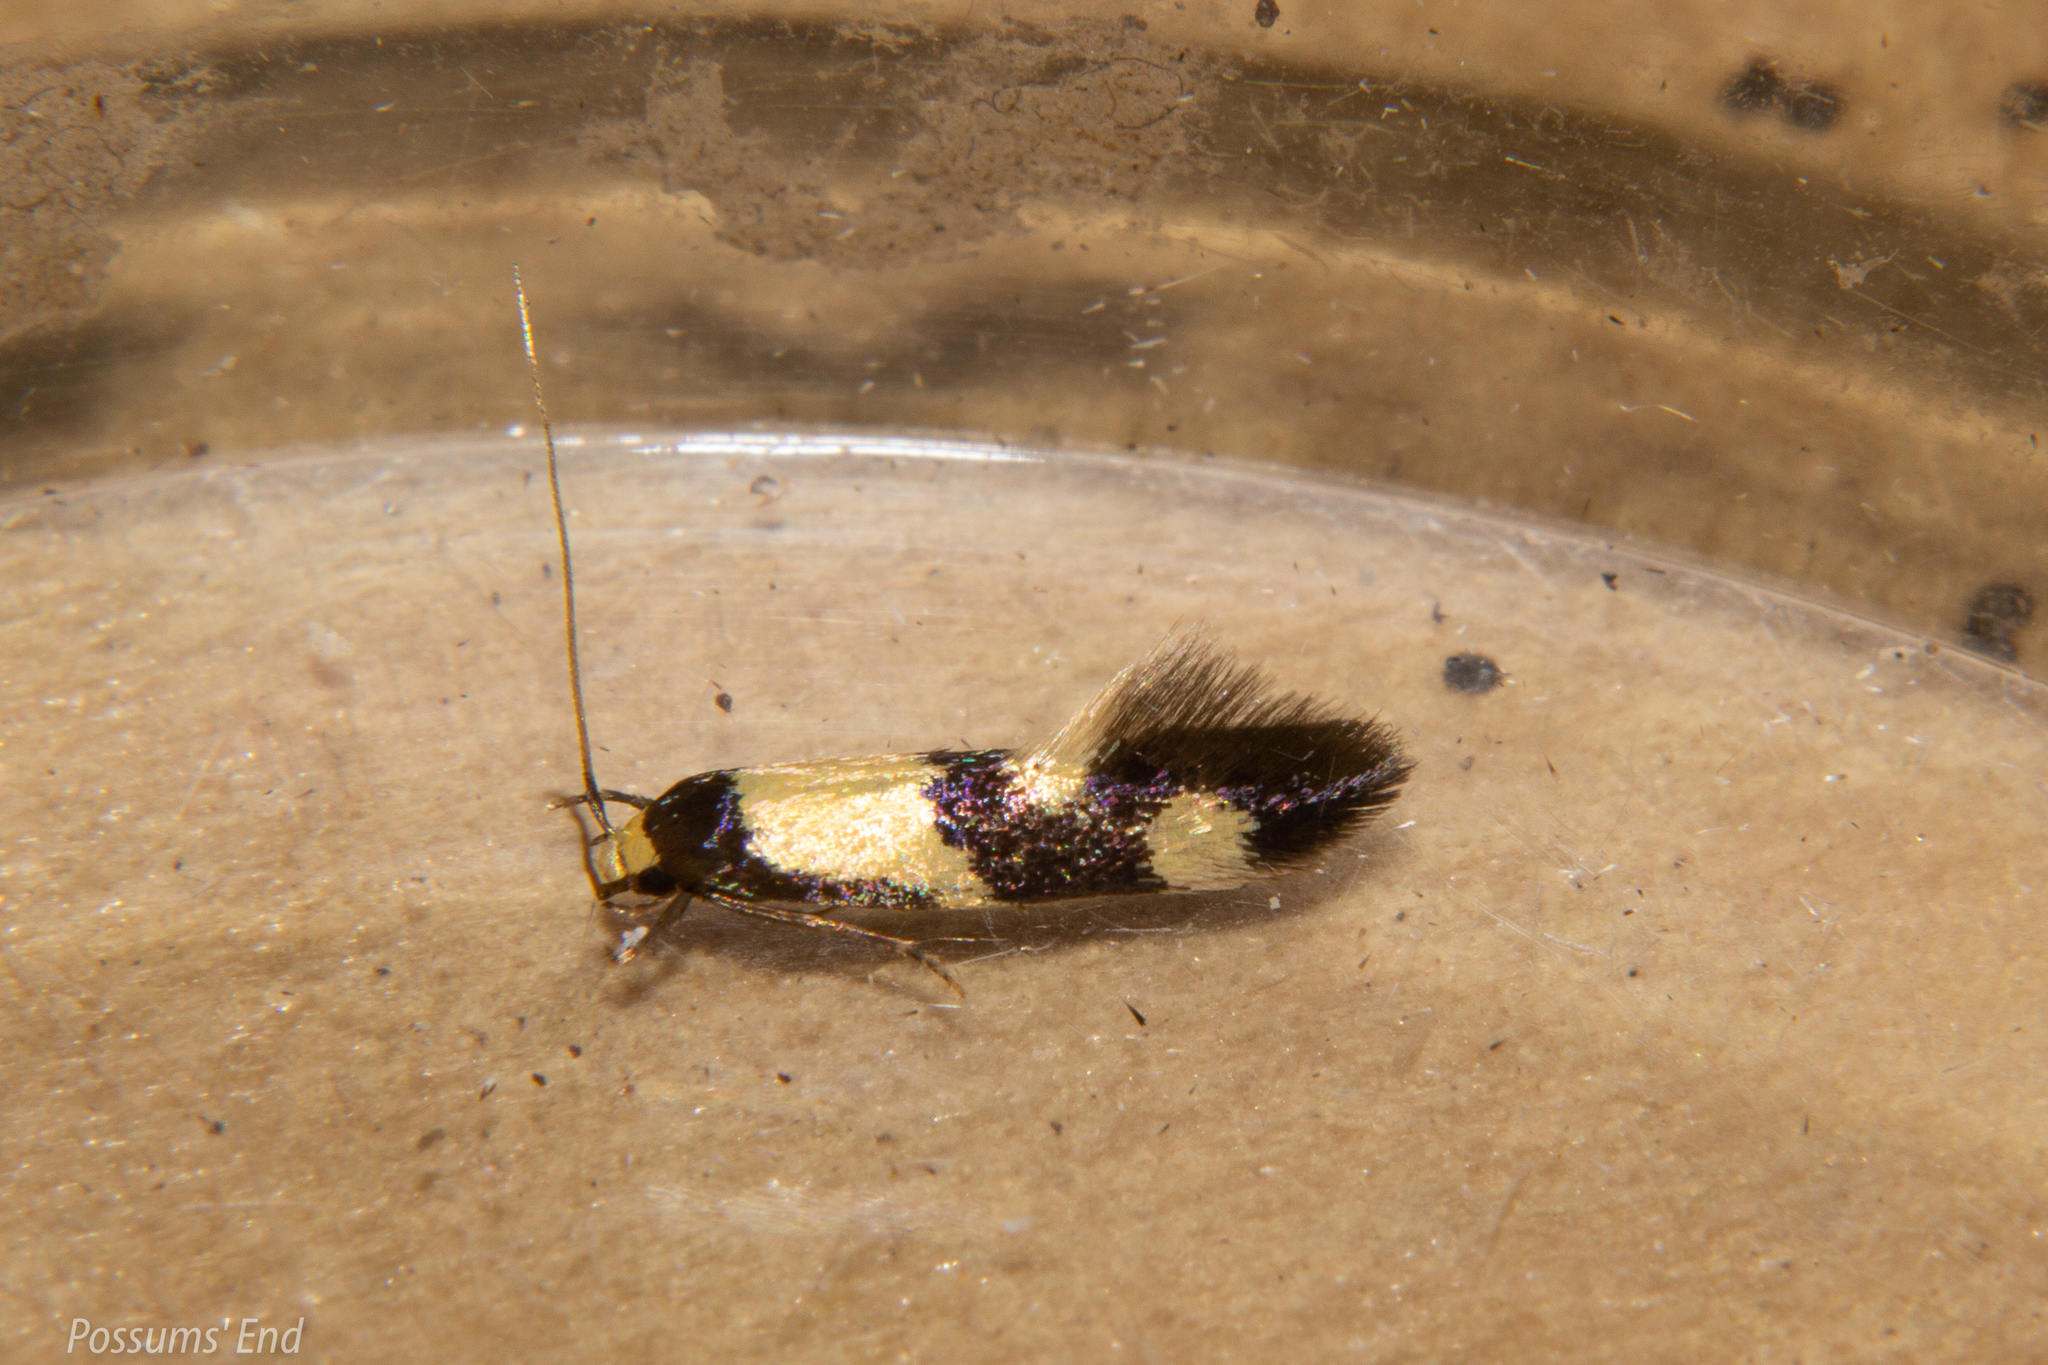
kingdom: Animalia
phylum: Arthropoda
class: Insecta
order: Lepidoptera
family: Tineidae
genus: Opogona
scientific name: Opogona comptella
